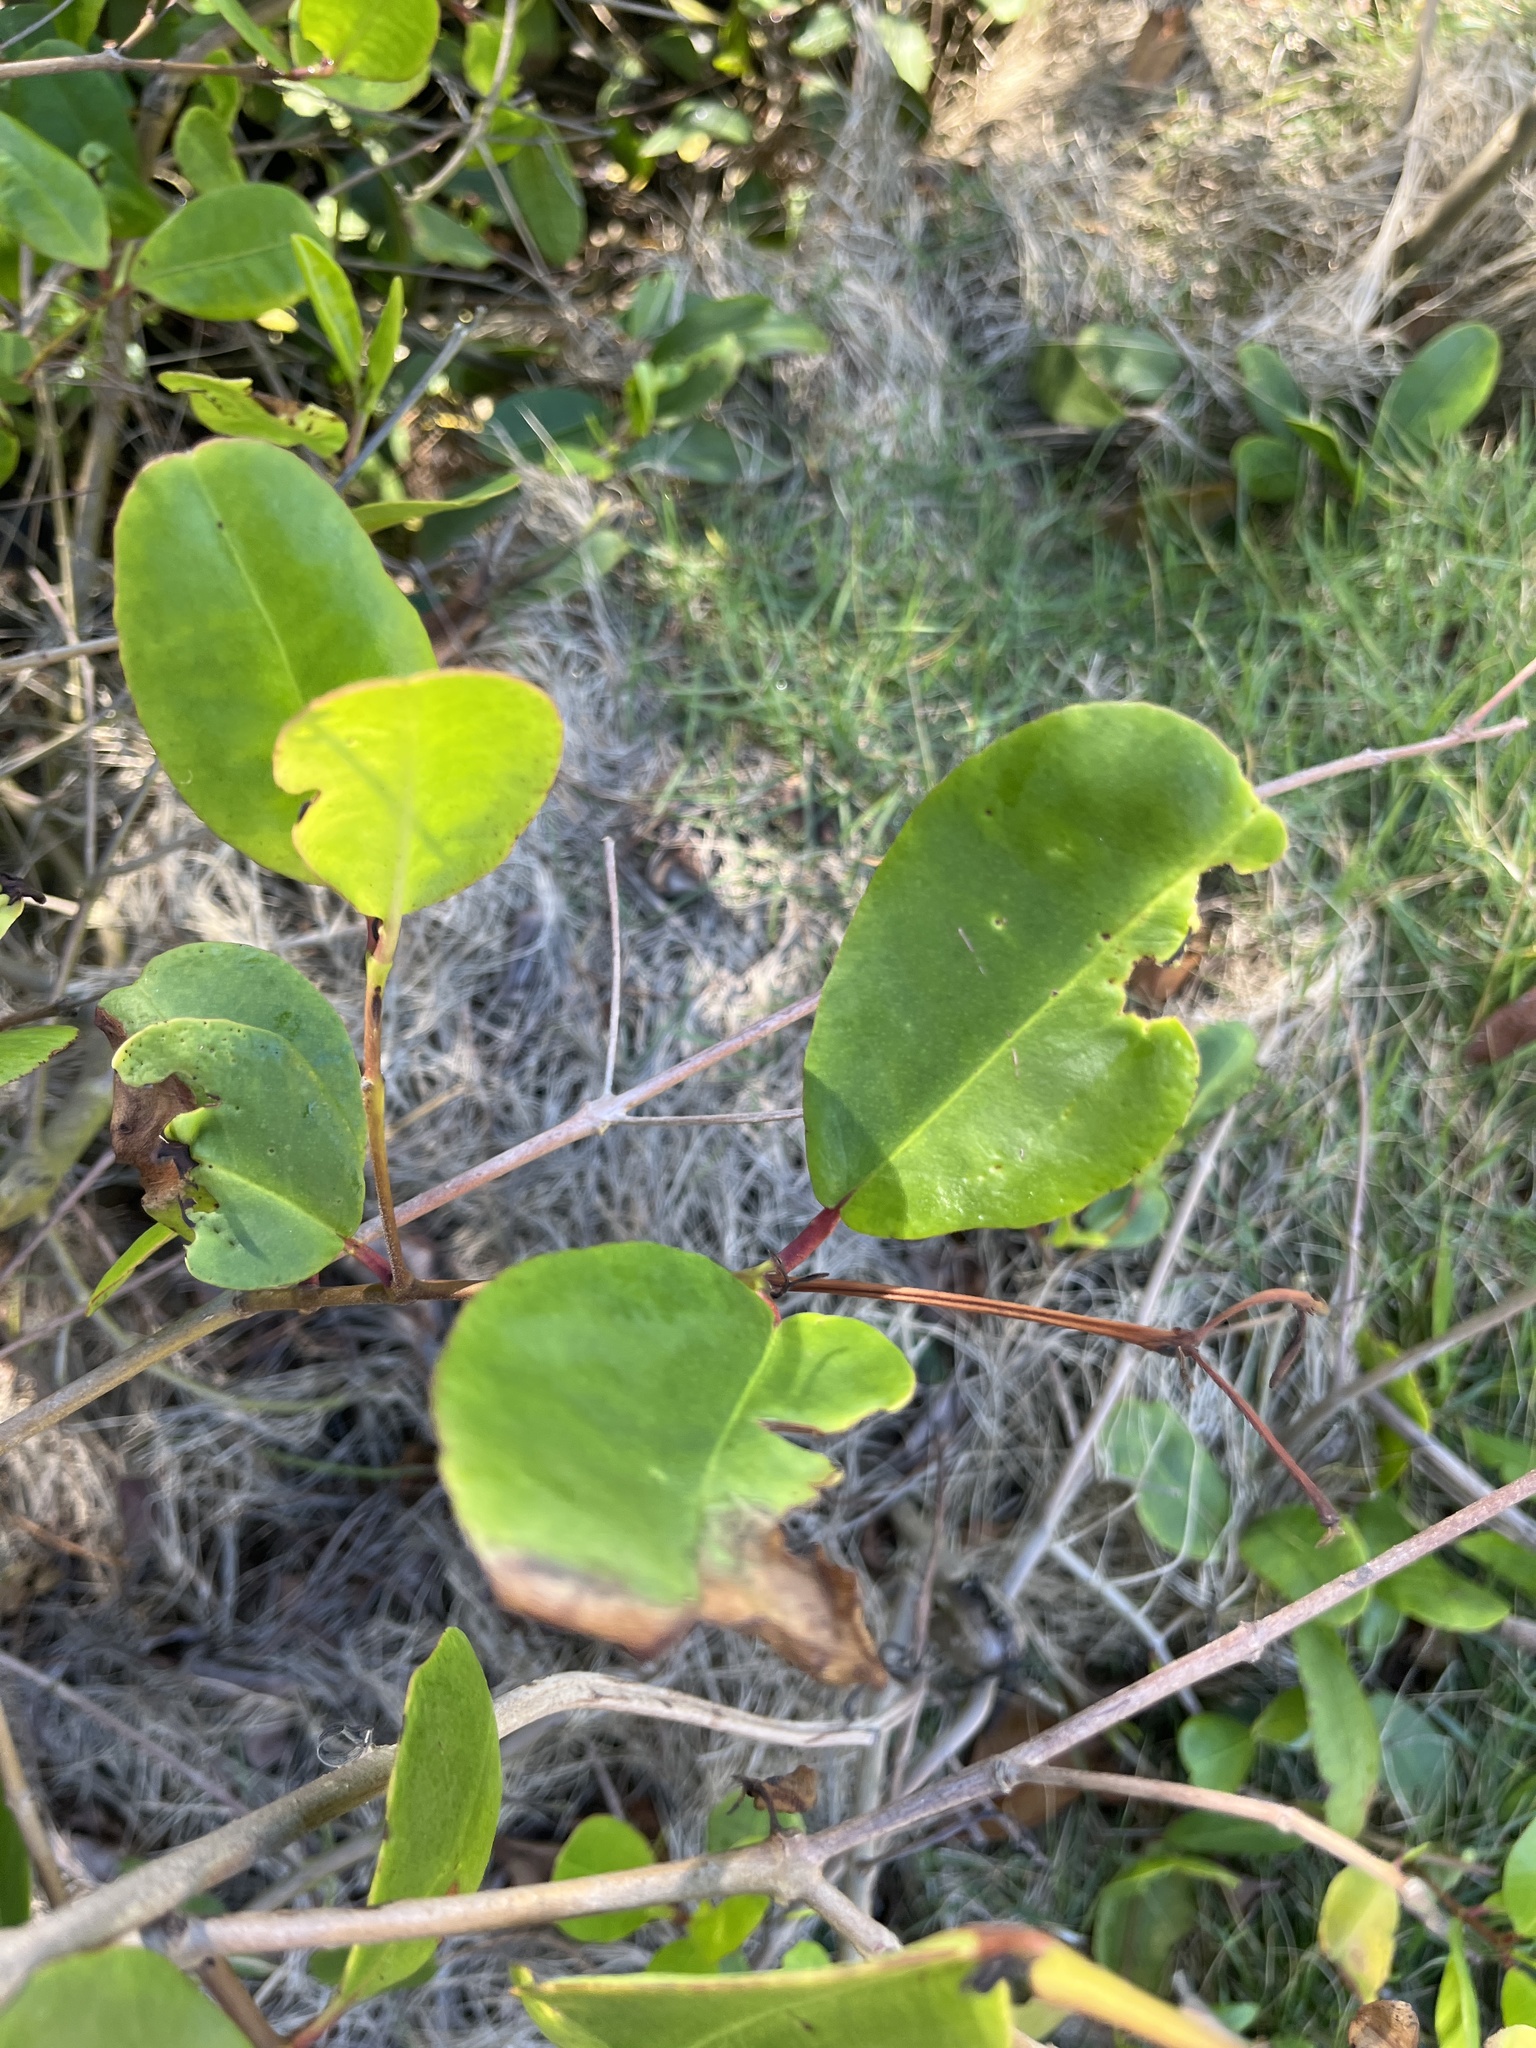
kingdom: Plantae
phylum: Tracheophyta
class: Magnoliopsida
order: Myrtales
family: Combretaceae
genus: Laguncularia
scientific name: Laguncularia racemosa
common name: White mangrove
